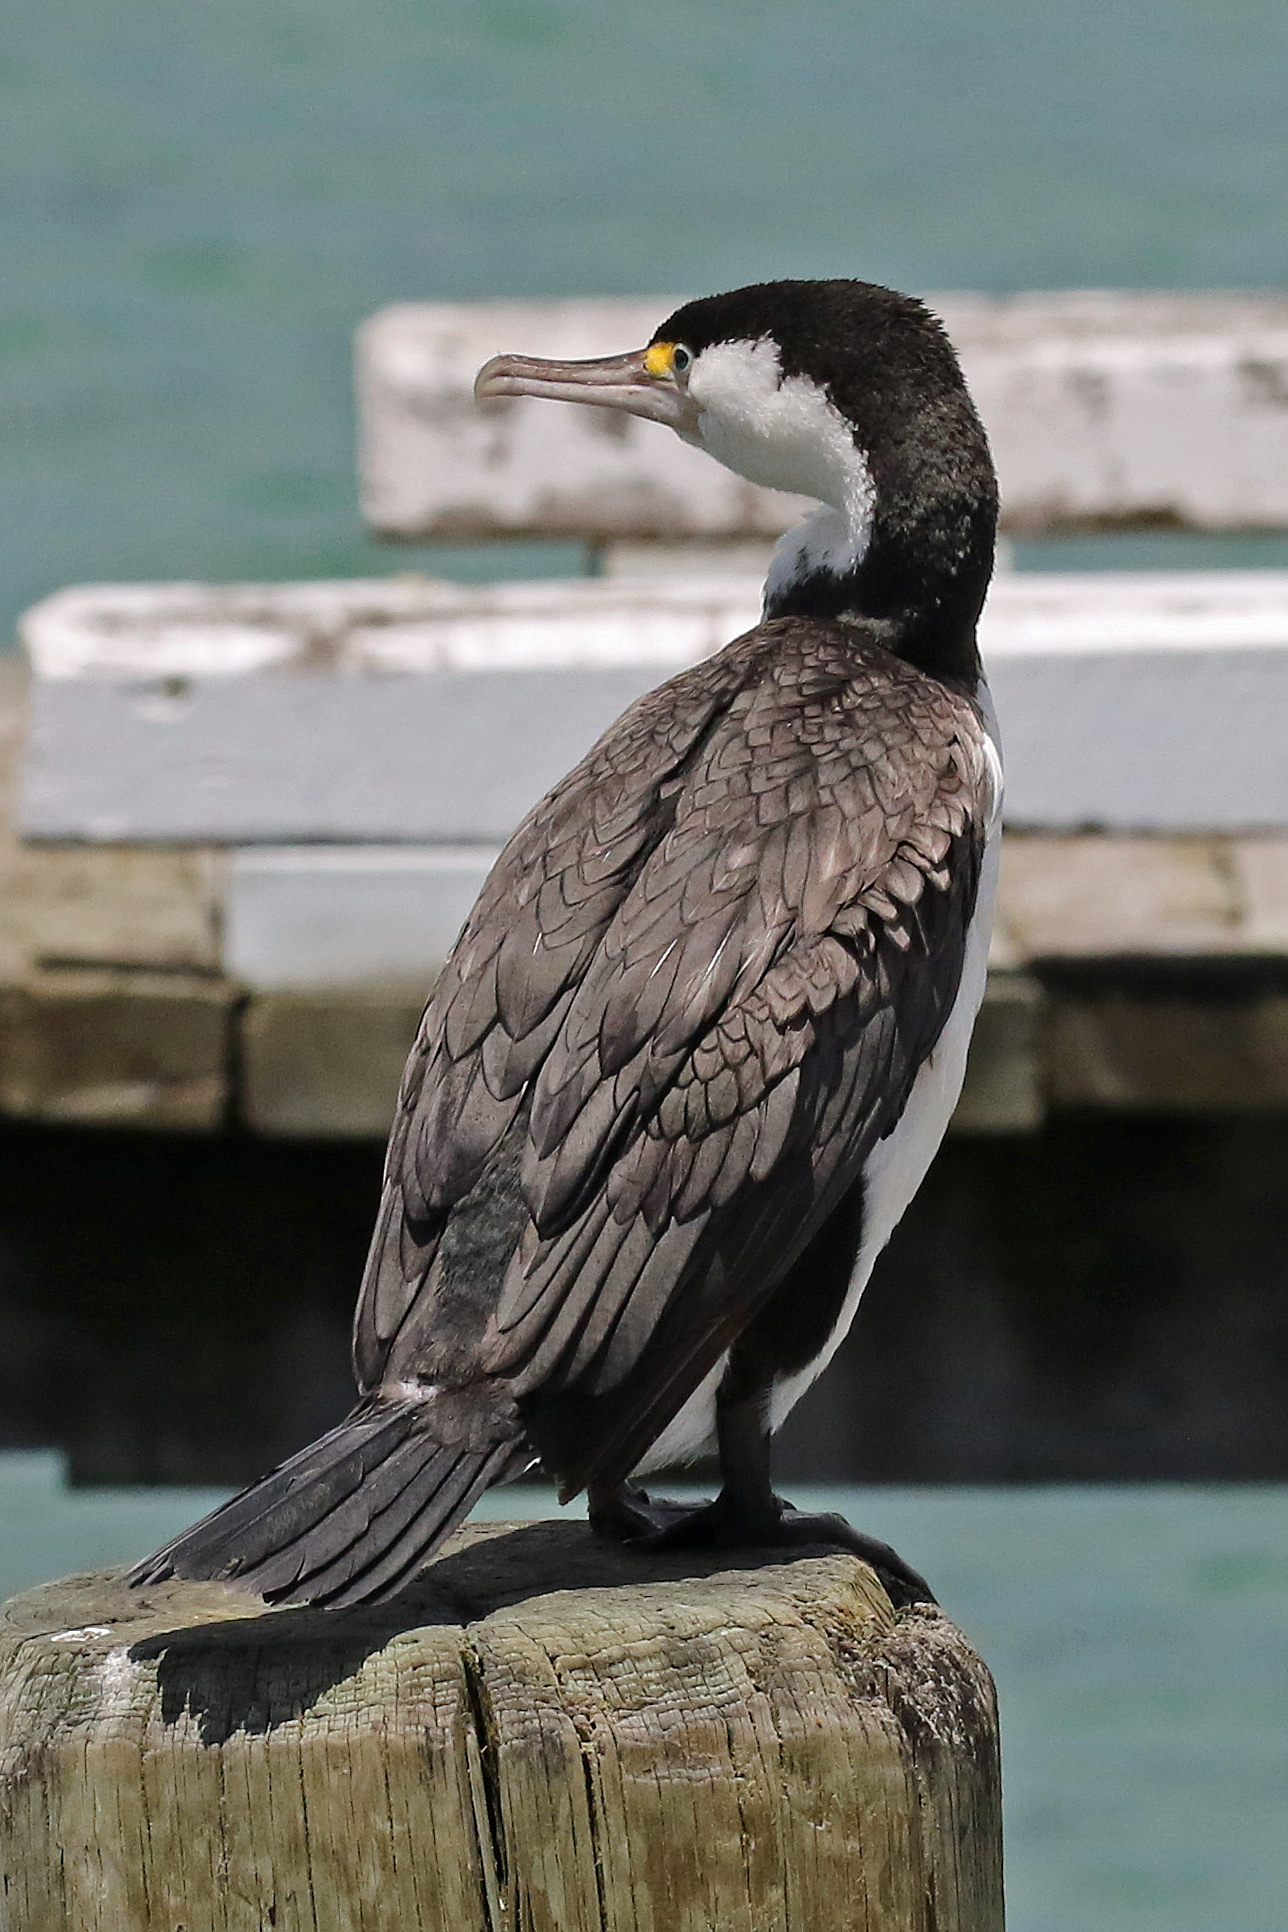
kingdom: Animalia
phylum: Chordata
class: Aves
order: Suliformes
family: Phalacrocoracidae
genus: Phalacrocorax
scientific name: Phalacrocorax varius
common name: Pied cormorant
